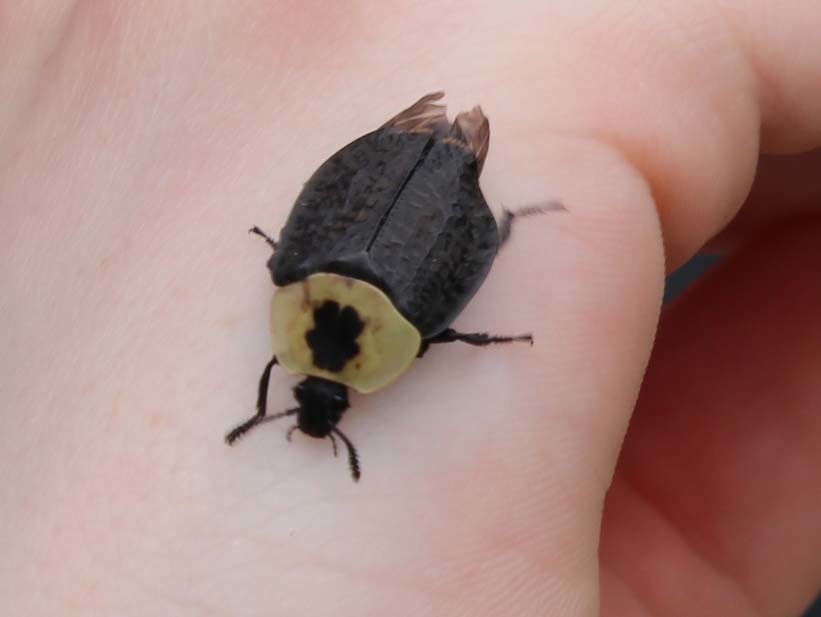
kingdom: Animalia
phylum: Arthropoda
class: Insecta
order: Coleoptera
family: Staphylinidae
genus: Necrophila
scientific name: Necrophila americana
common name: American carrion beetle
